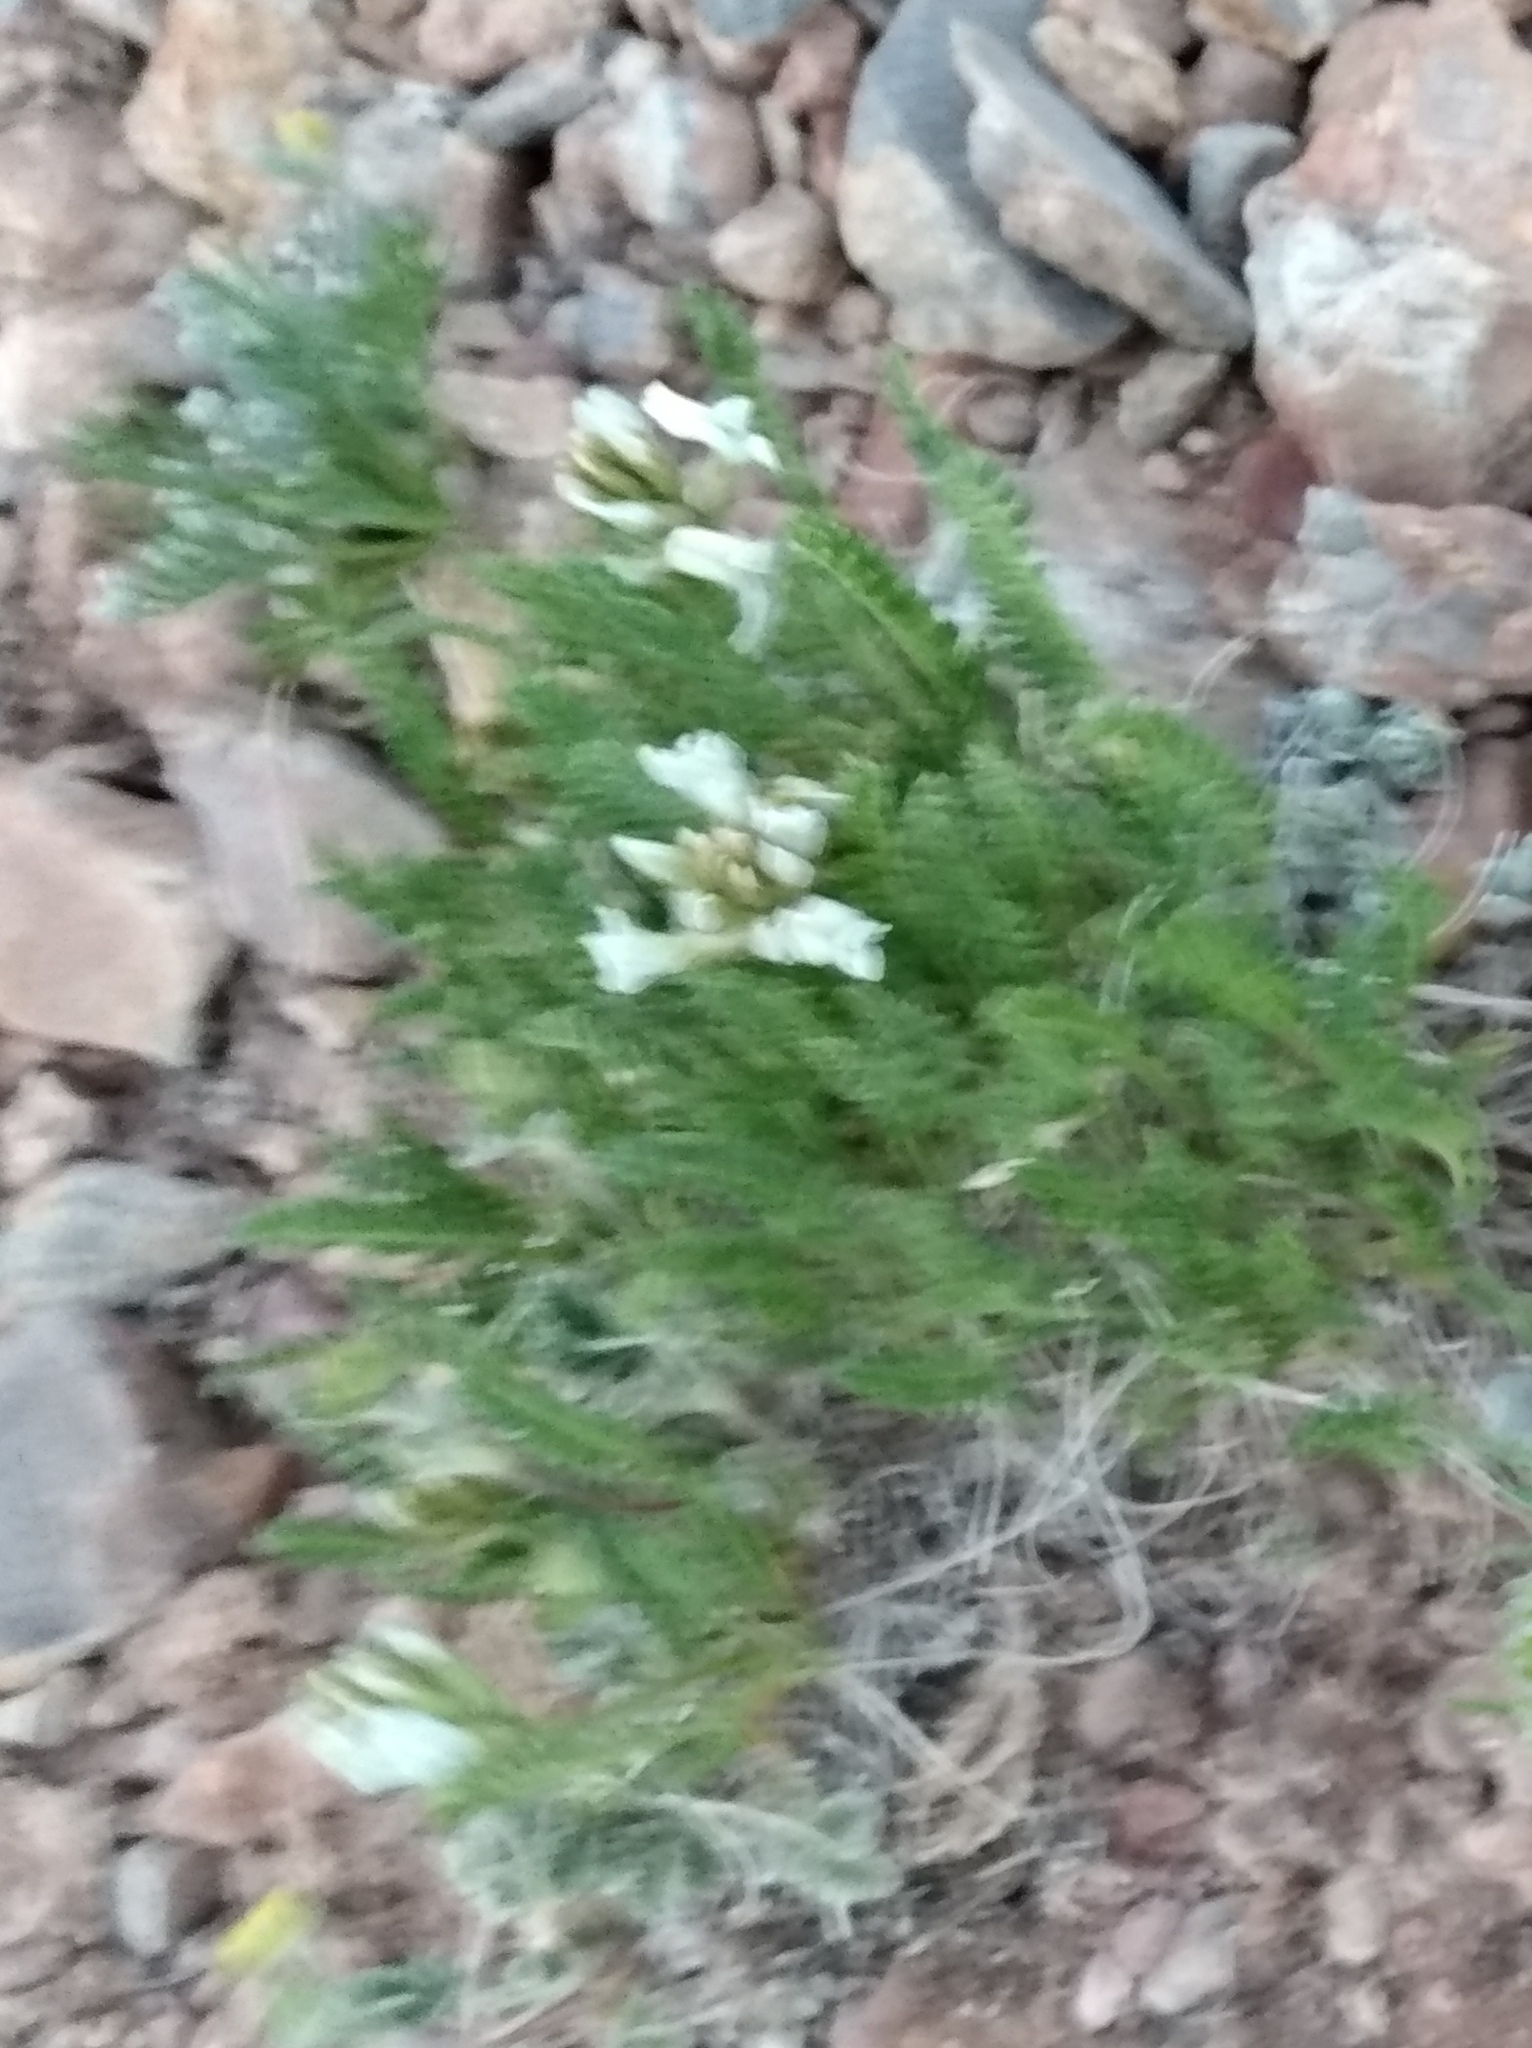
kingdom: Plantae
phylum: Tracheophyta
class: Magnoliopsida
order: Fabales
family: Fabaceae
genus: Oxytropis
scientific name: Oxytropis borealis
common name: Boreal locoweed
